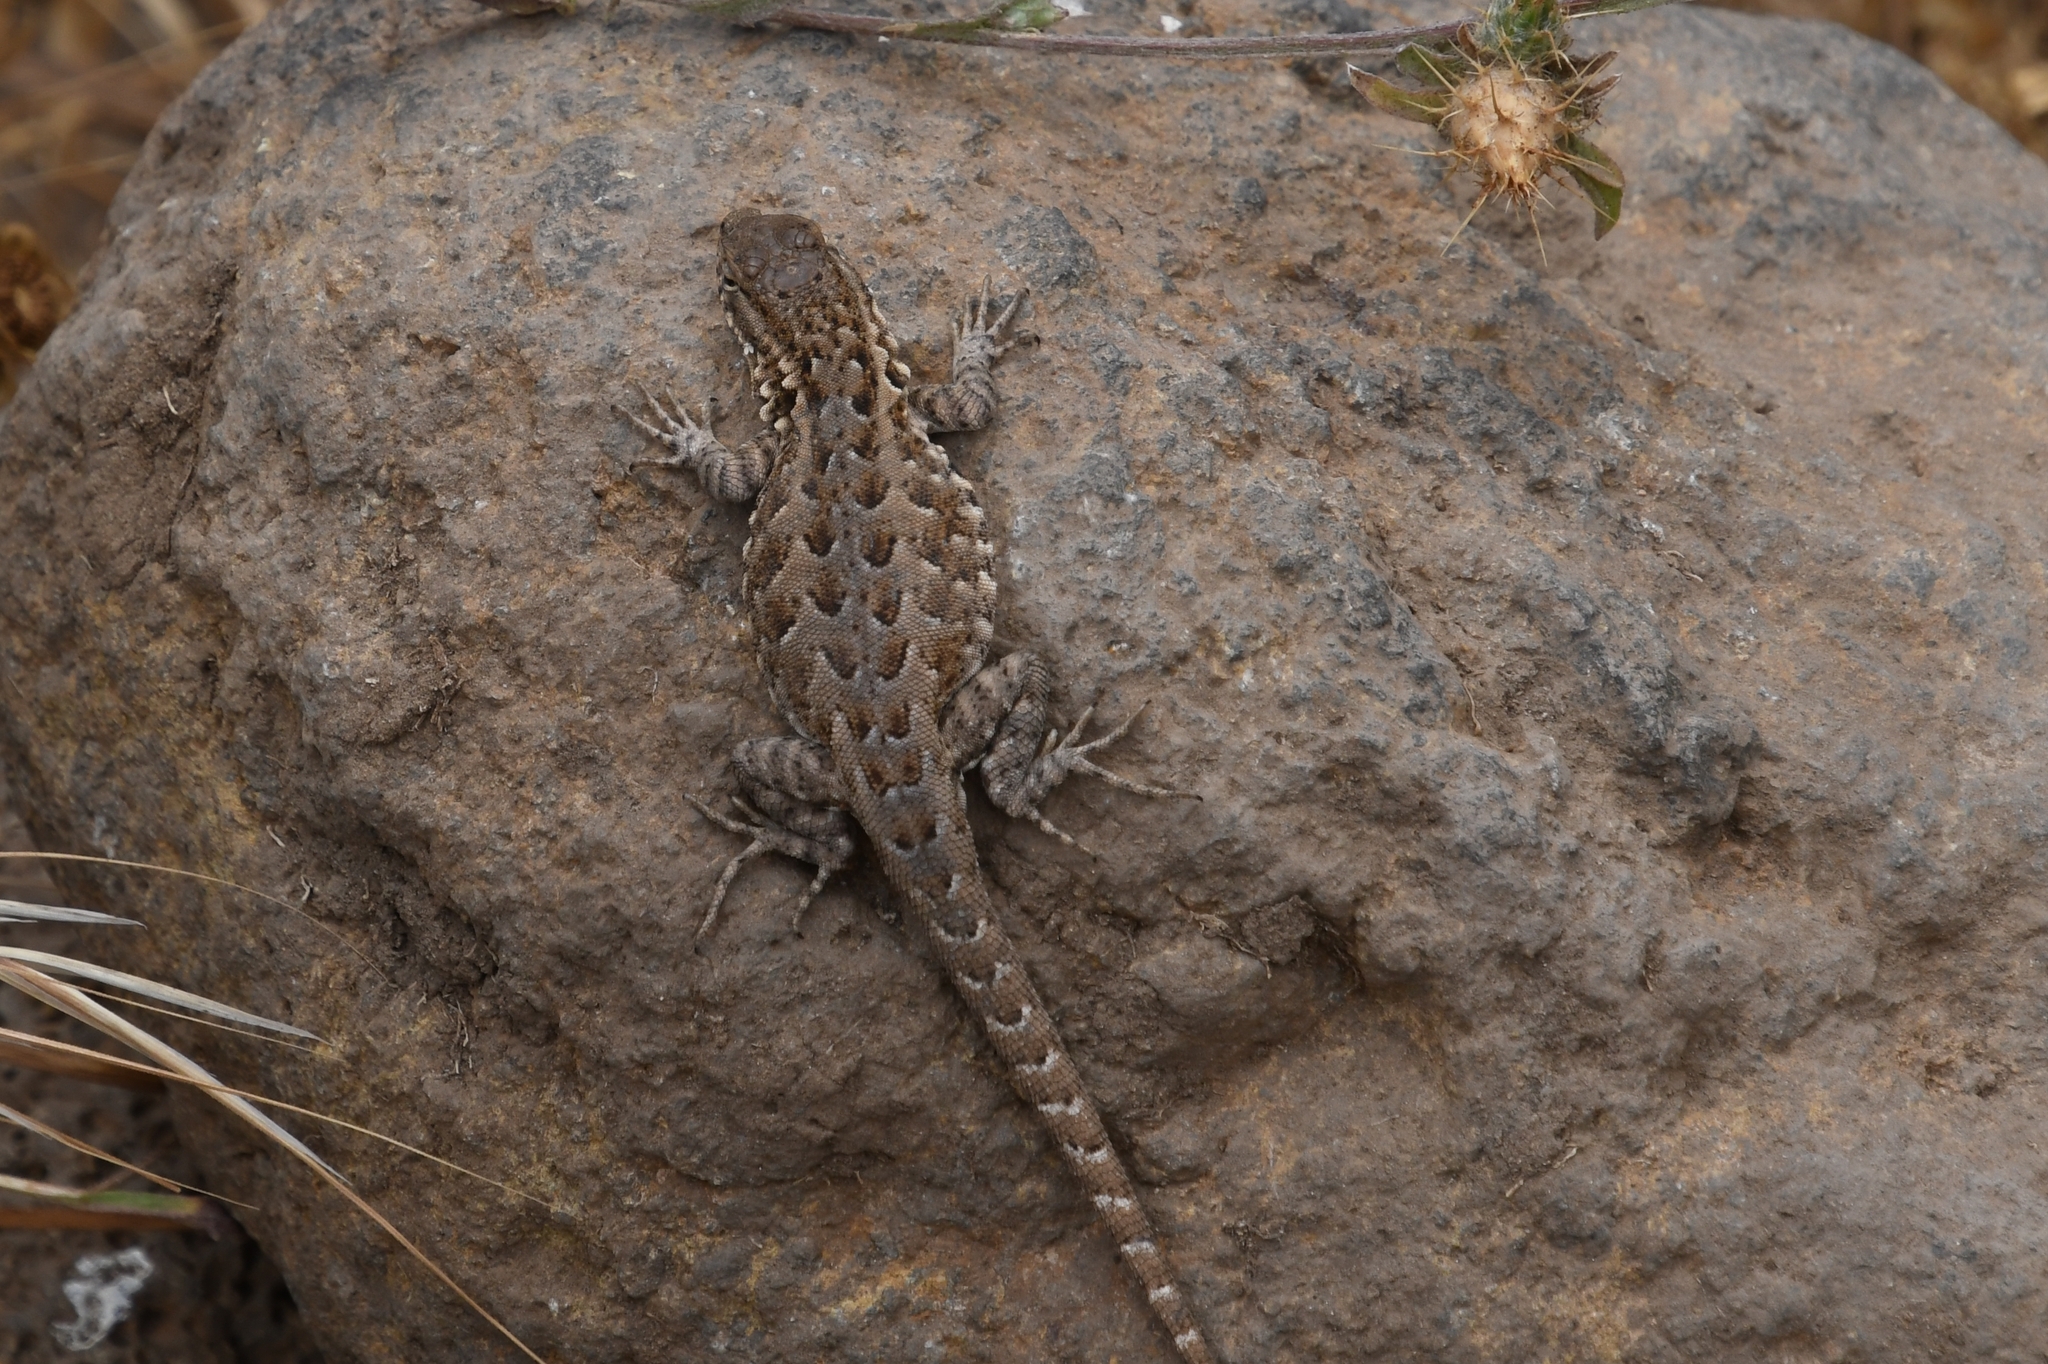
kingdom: Animalia
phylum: Chordata
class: Squamata
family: Phrynosomatidae
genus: Uta
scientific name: Uta stansburiana
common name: Side-blotched lizard
